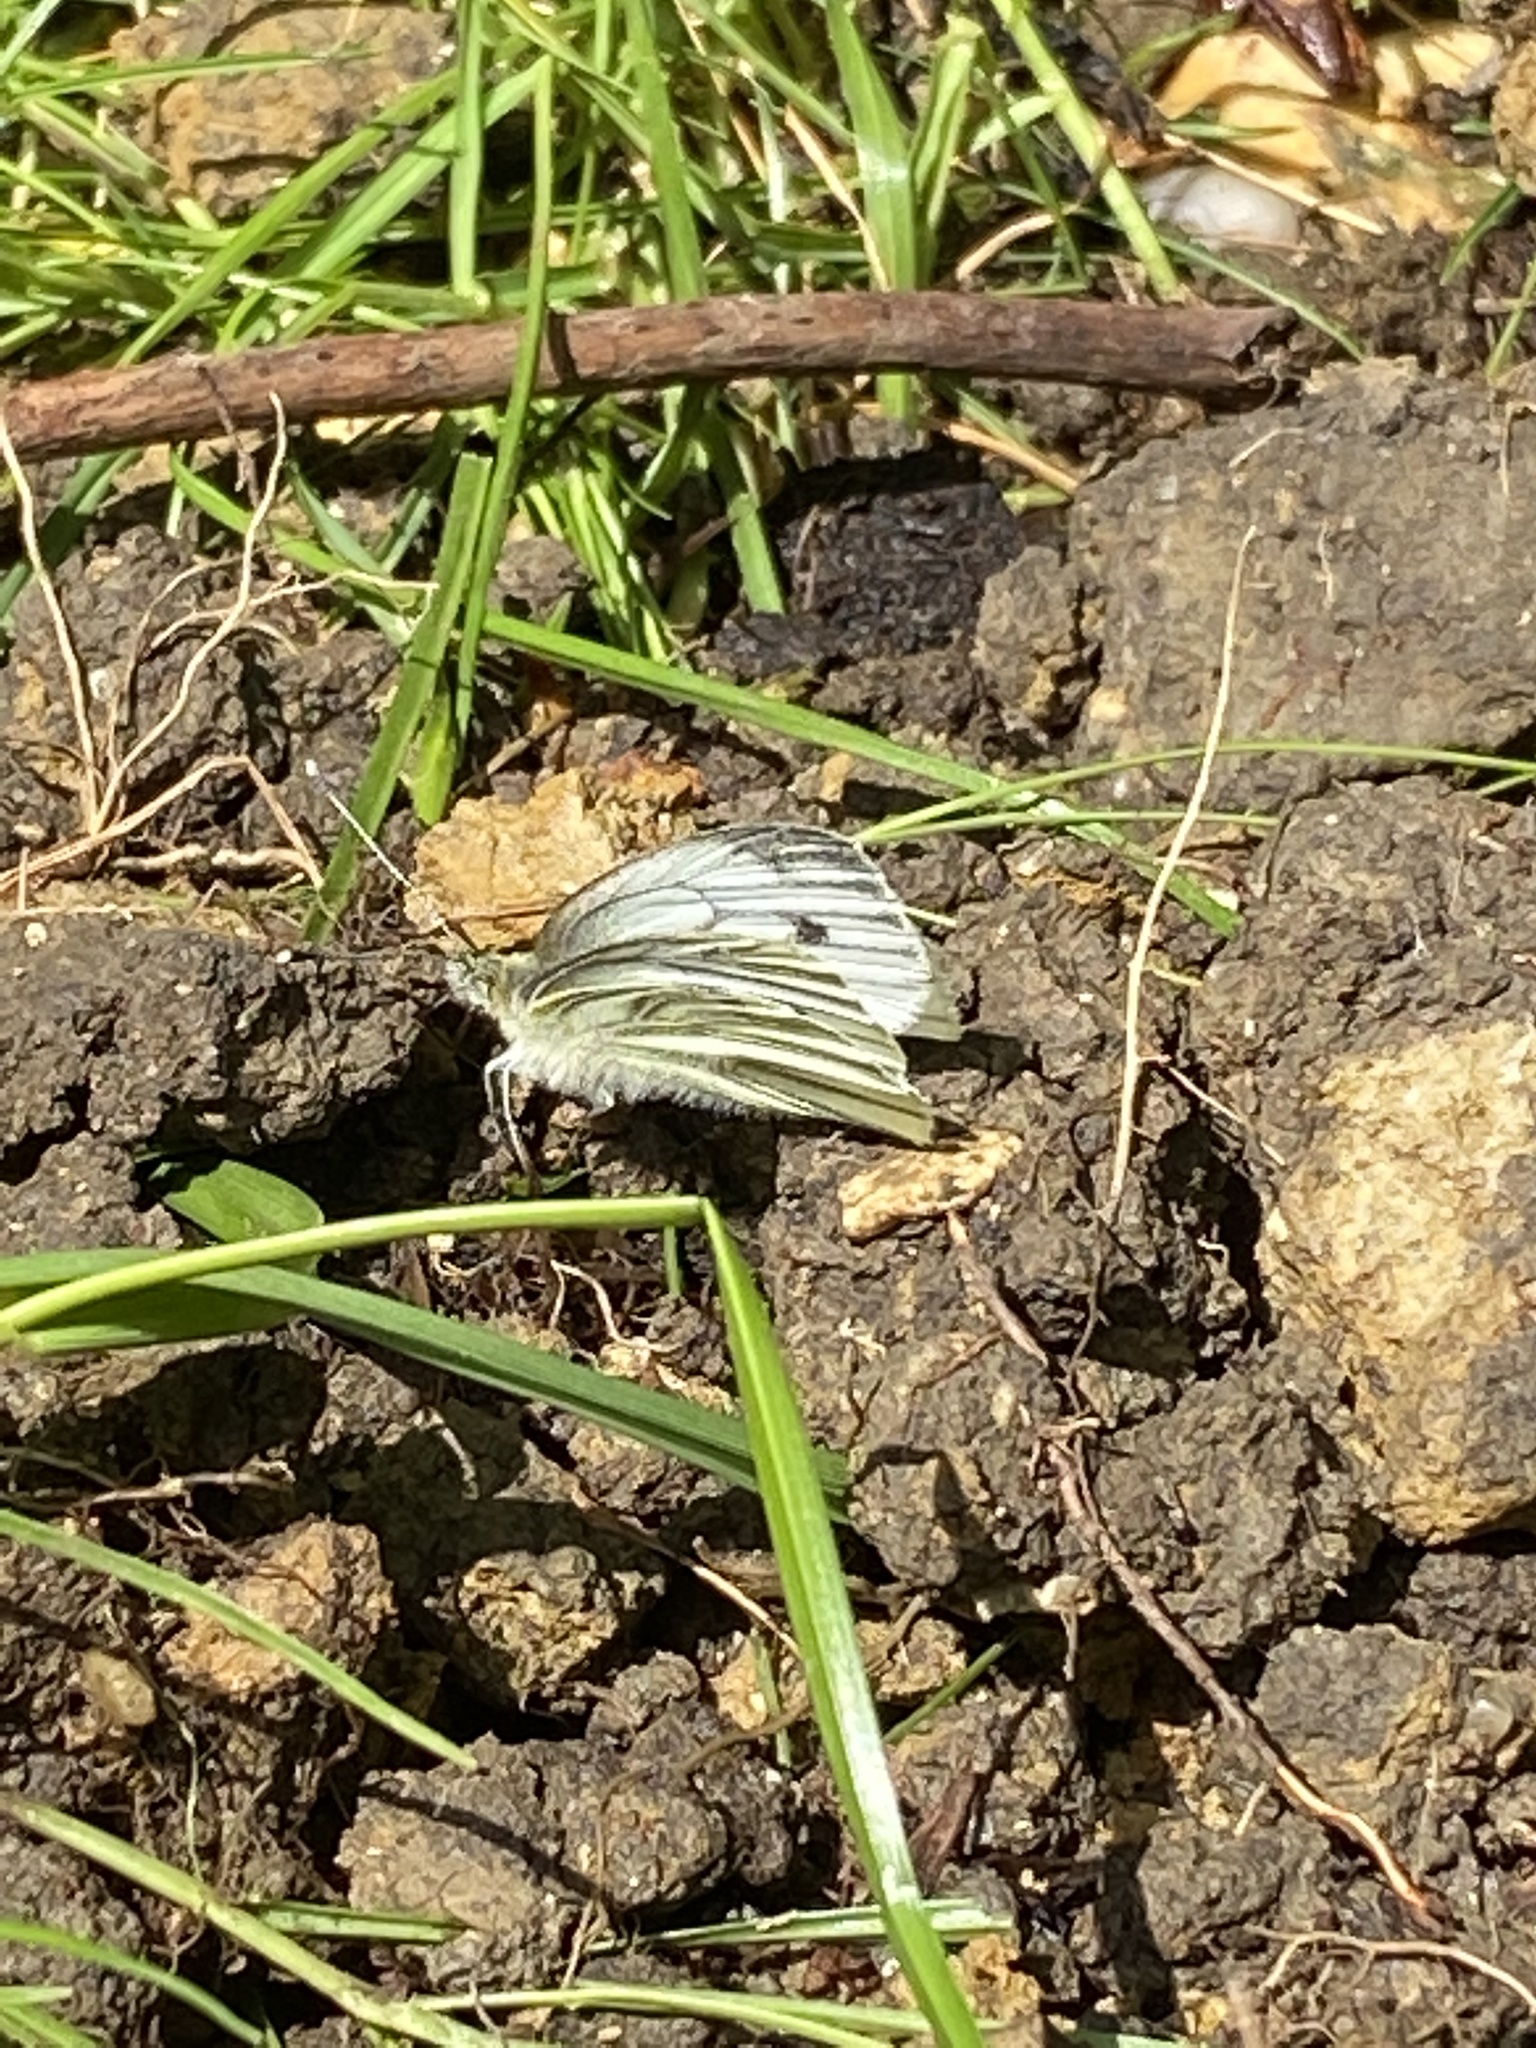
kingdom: Animalia
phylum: Arthropoda
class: Insecta
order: Lepidoptera
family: Pieridae
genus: Pieris
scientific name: Pieris napi
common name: Green-veined white
